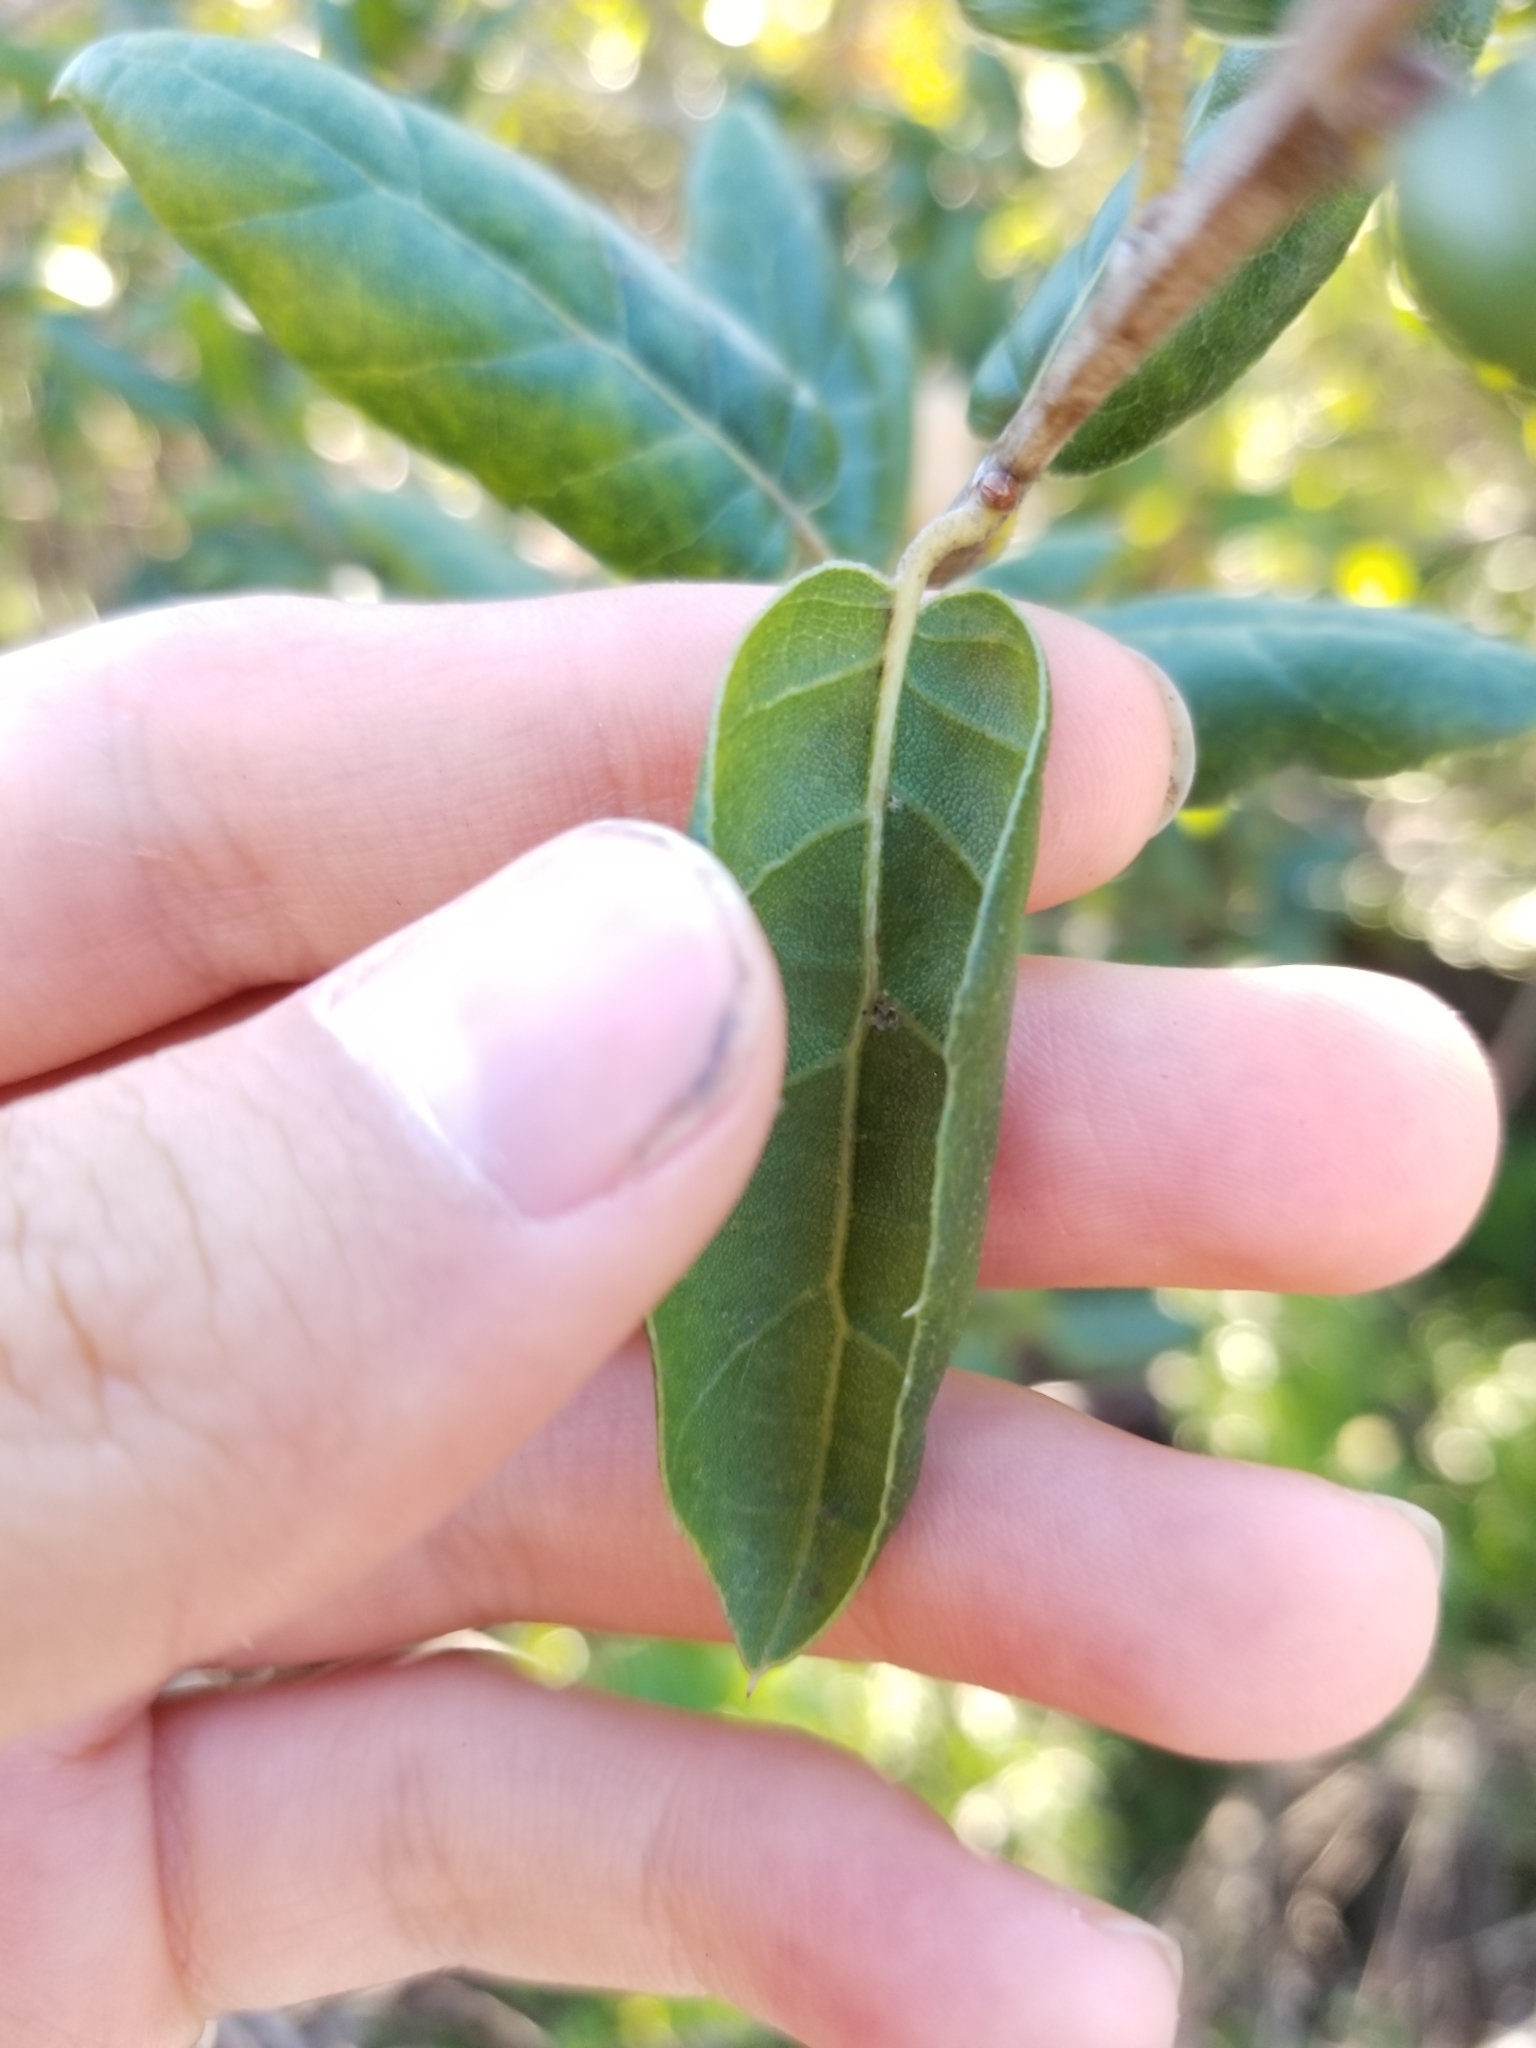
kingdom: Plantae
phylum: Tracheophyta
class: Magnoliopsida
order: Fagales
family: Fagaceae
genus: Quercus
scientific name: Quercus agrifolia
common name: California live oak
